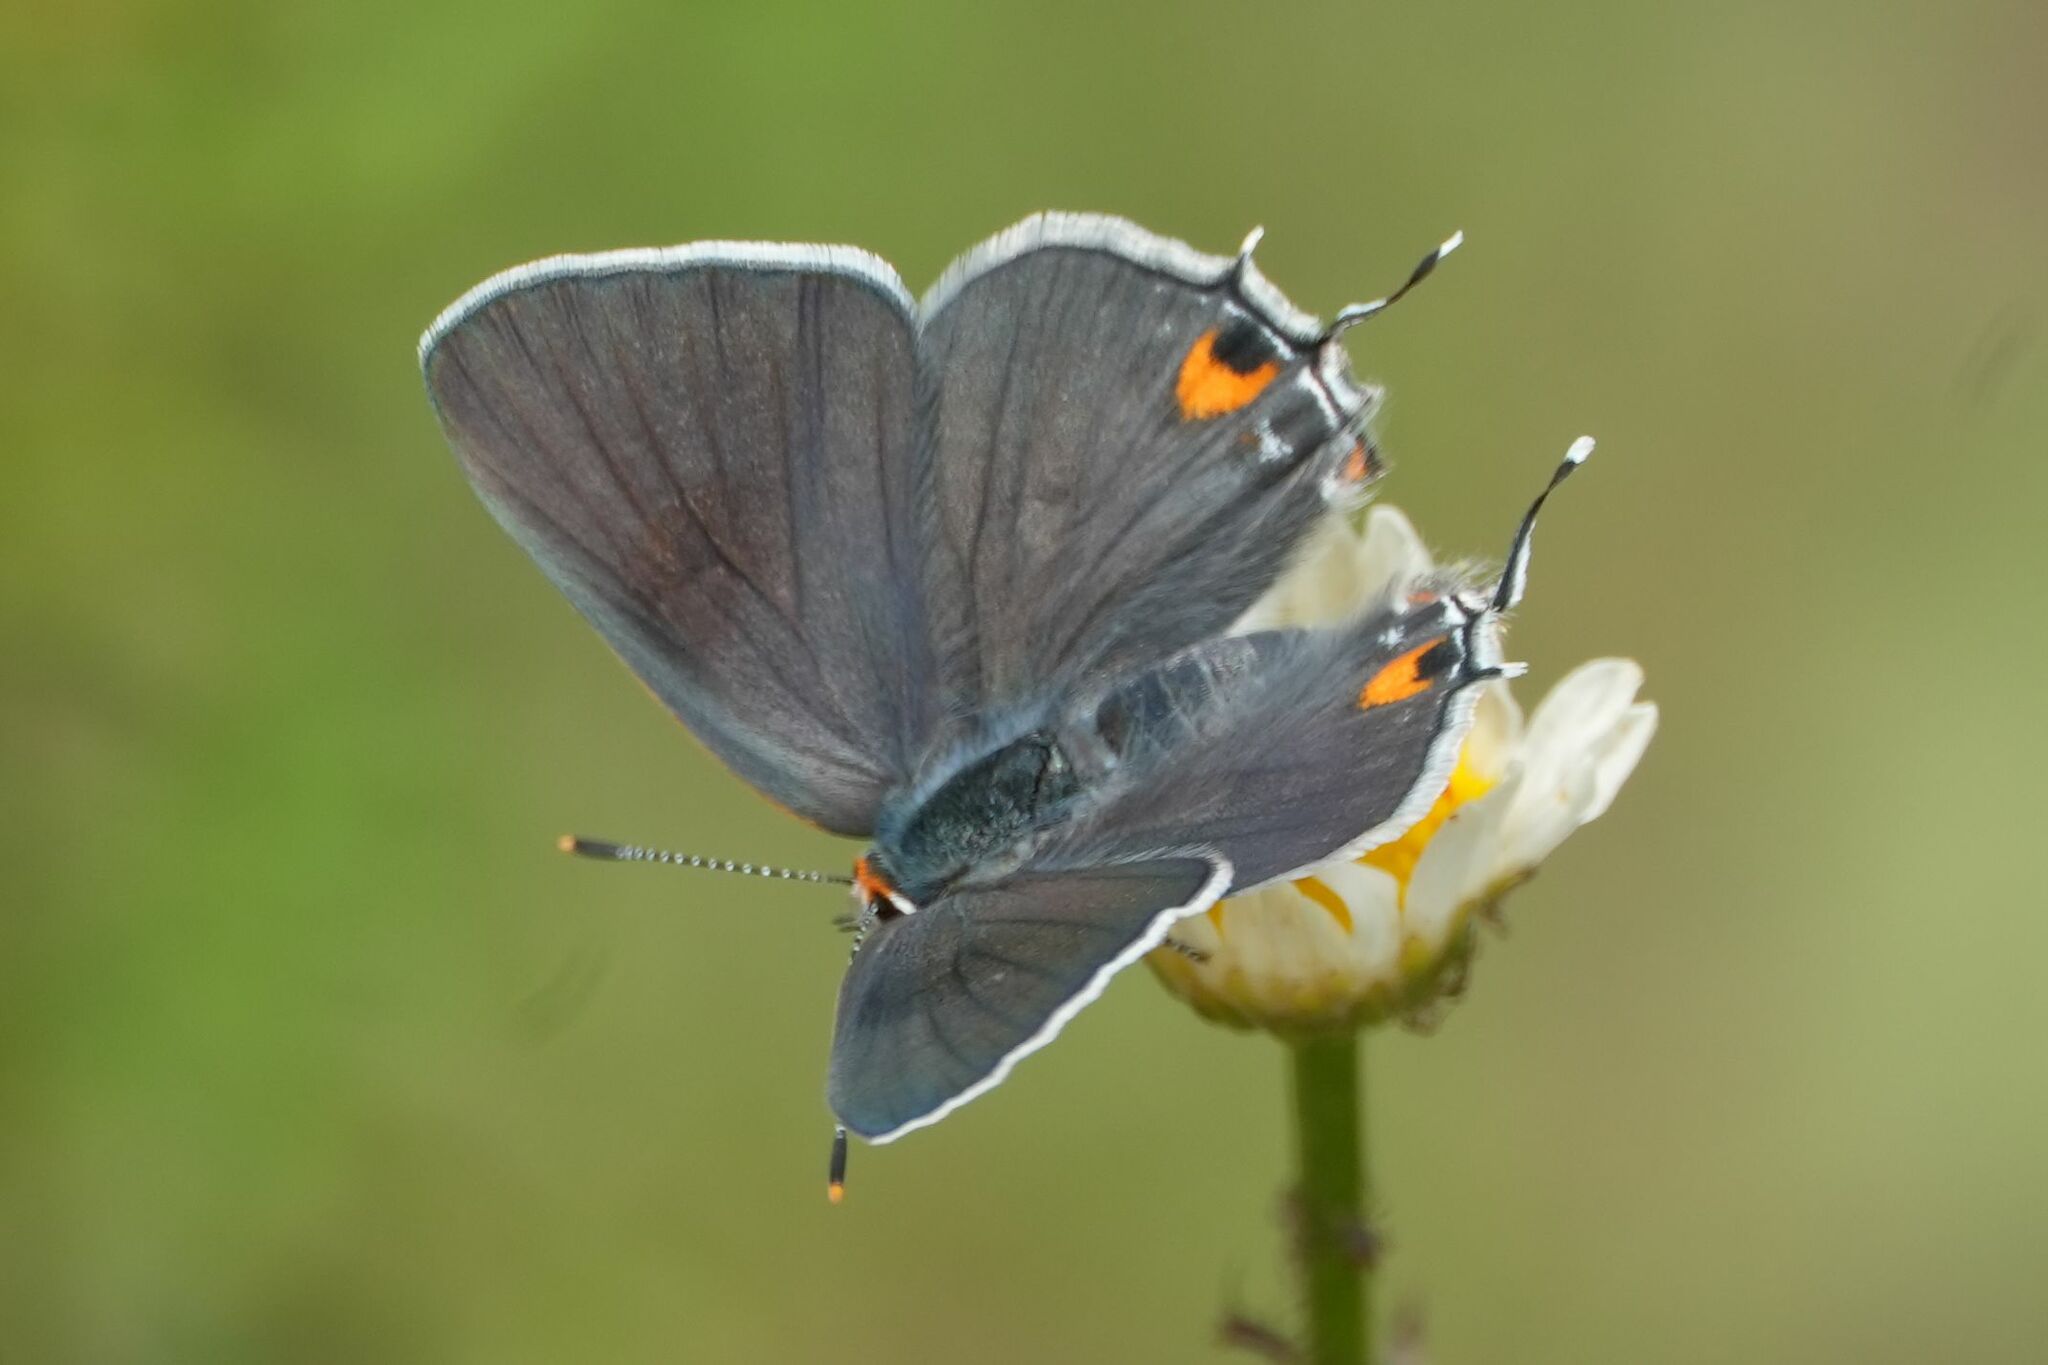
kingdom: Animalia
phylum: Arthropoda
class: Insecta
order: Lepidoptera
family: Lycaenidae
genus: Strymon
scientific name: Strymon melinus
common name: Gray hairstreak
